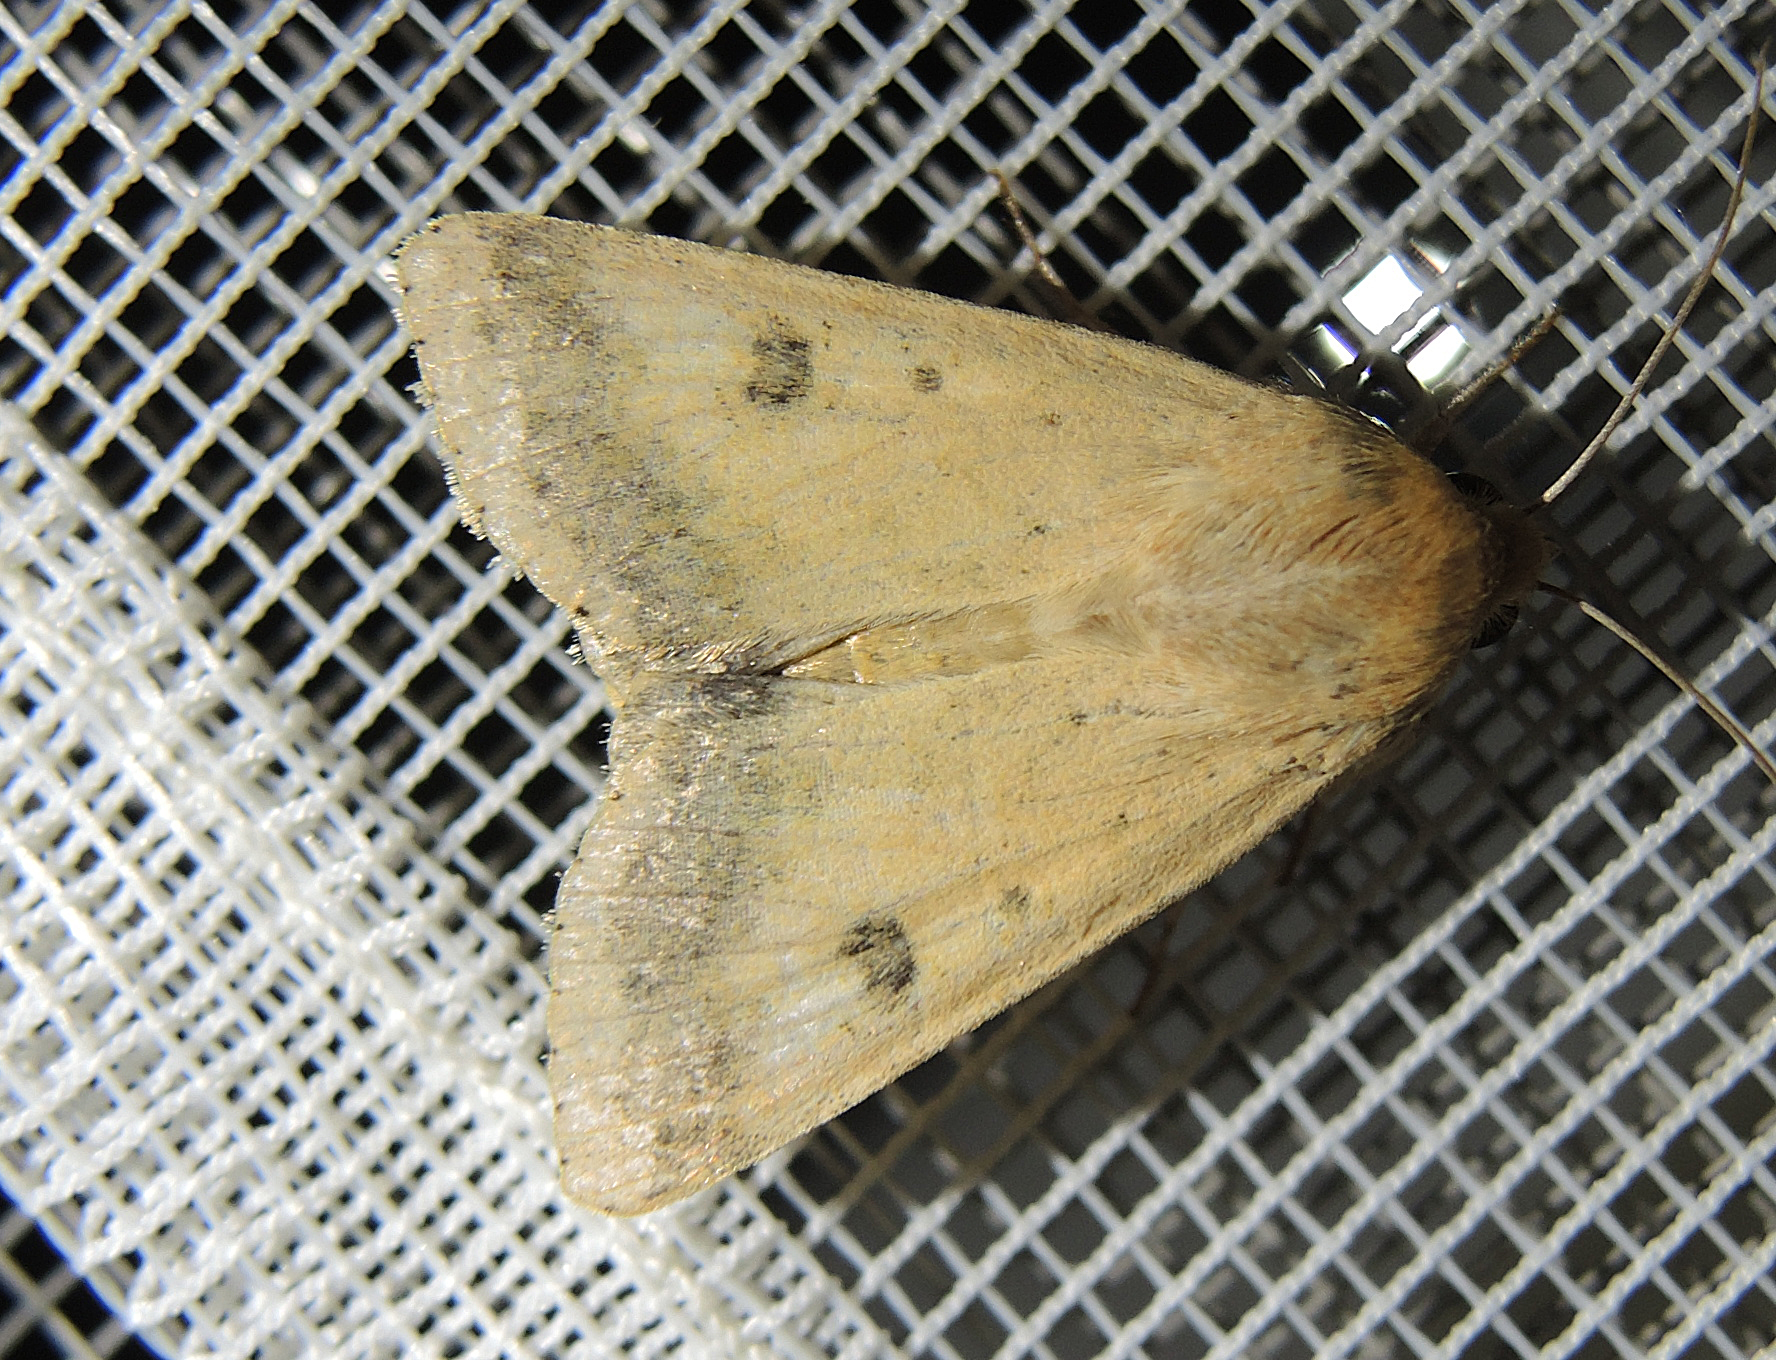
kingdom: Animalia
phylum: Arthropoda
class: Insecta
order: Lepidoptera
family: Noctuidae
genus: Helicoverpa
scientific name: Helicoverpa armigera
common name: Cotton bollworm
